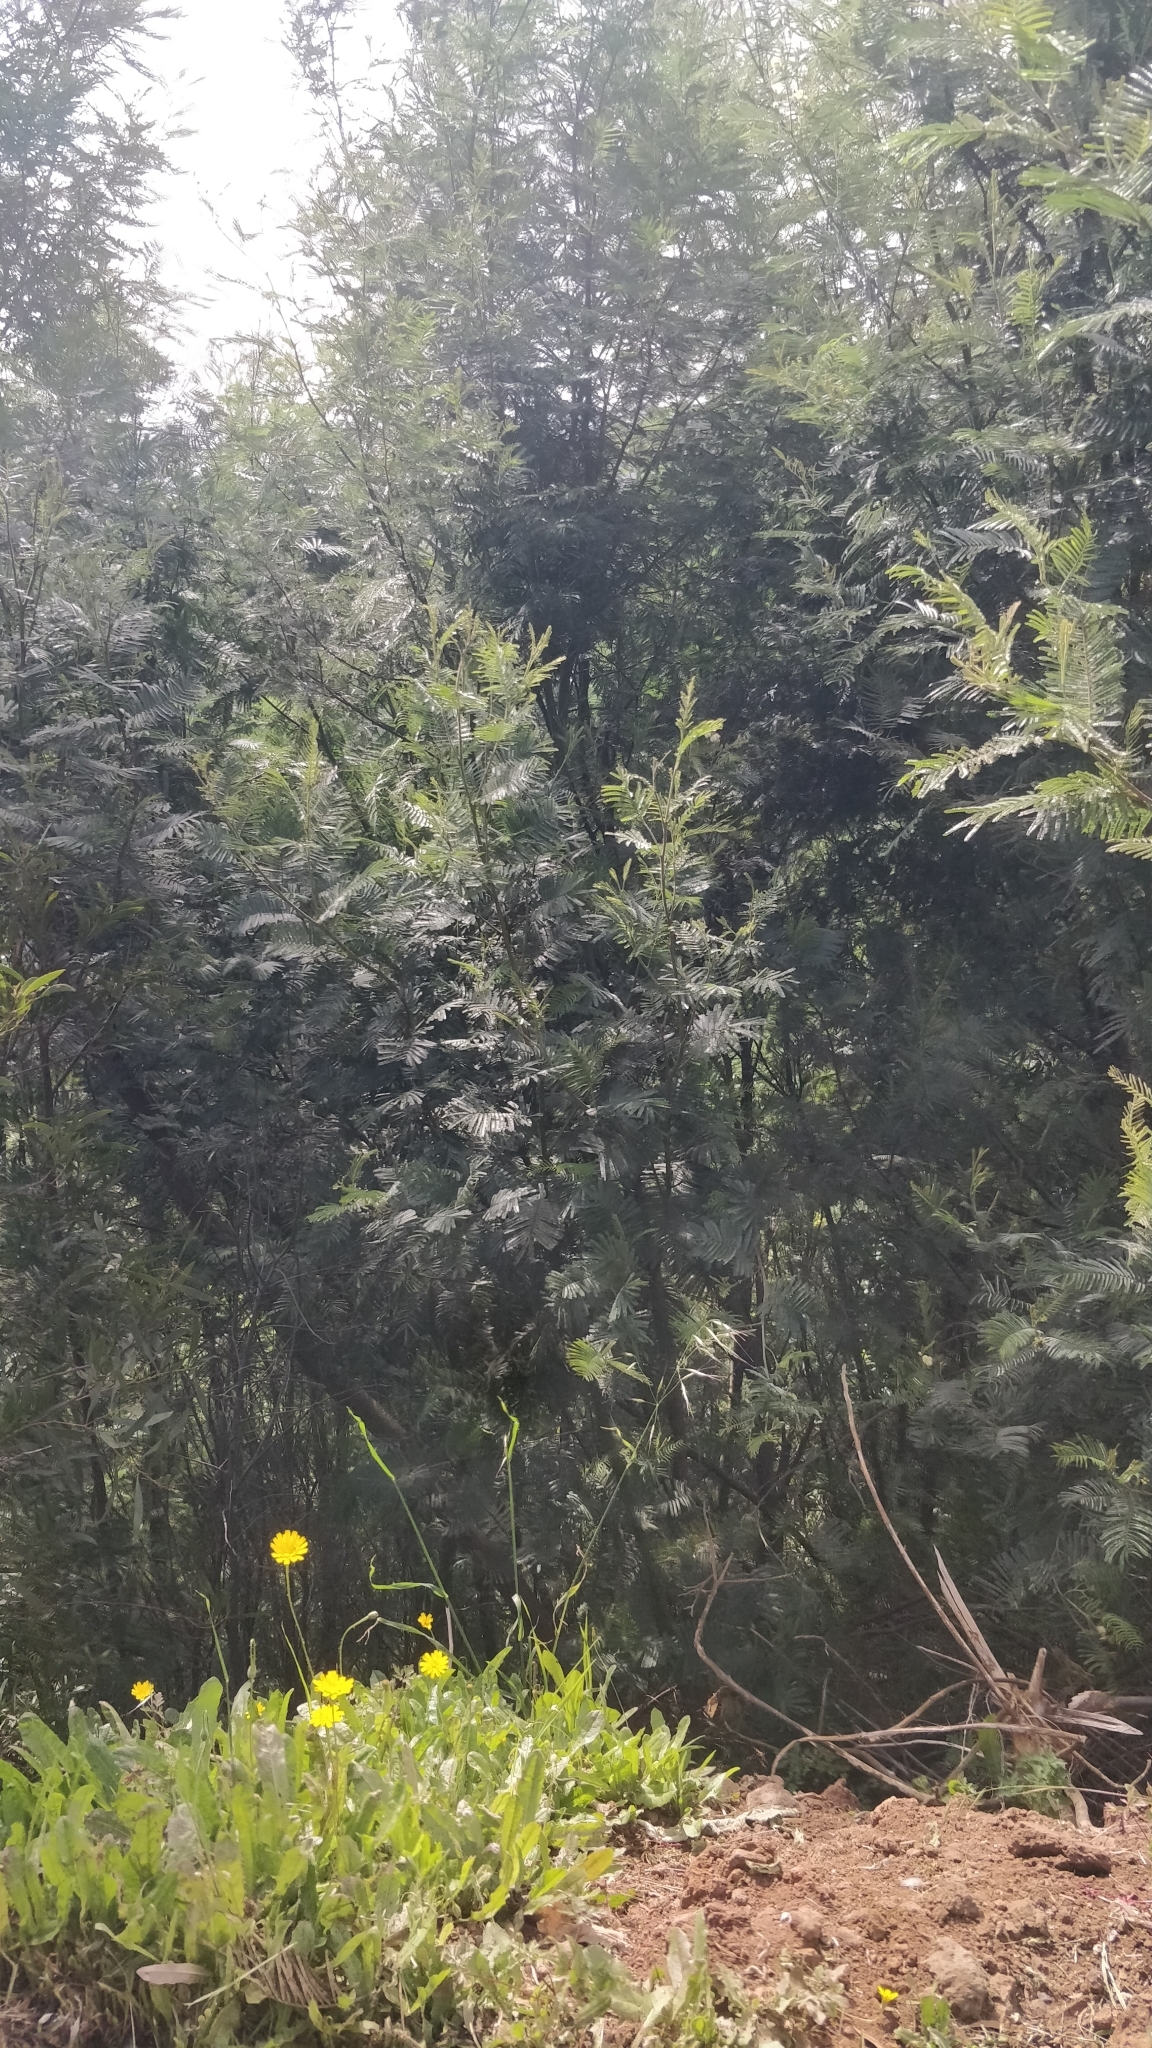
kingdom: Plantae
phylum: Tracheophyta
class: Magnoliopsida
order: Fabales
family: Fabaceae
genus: Acacia
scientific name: Acacia mearnsii
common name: Black wattle
